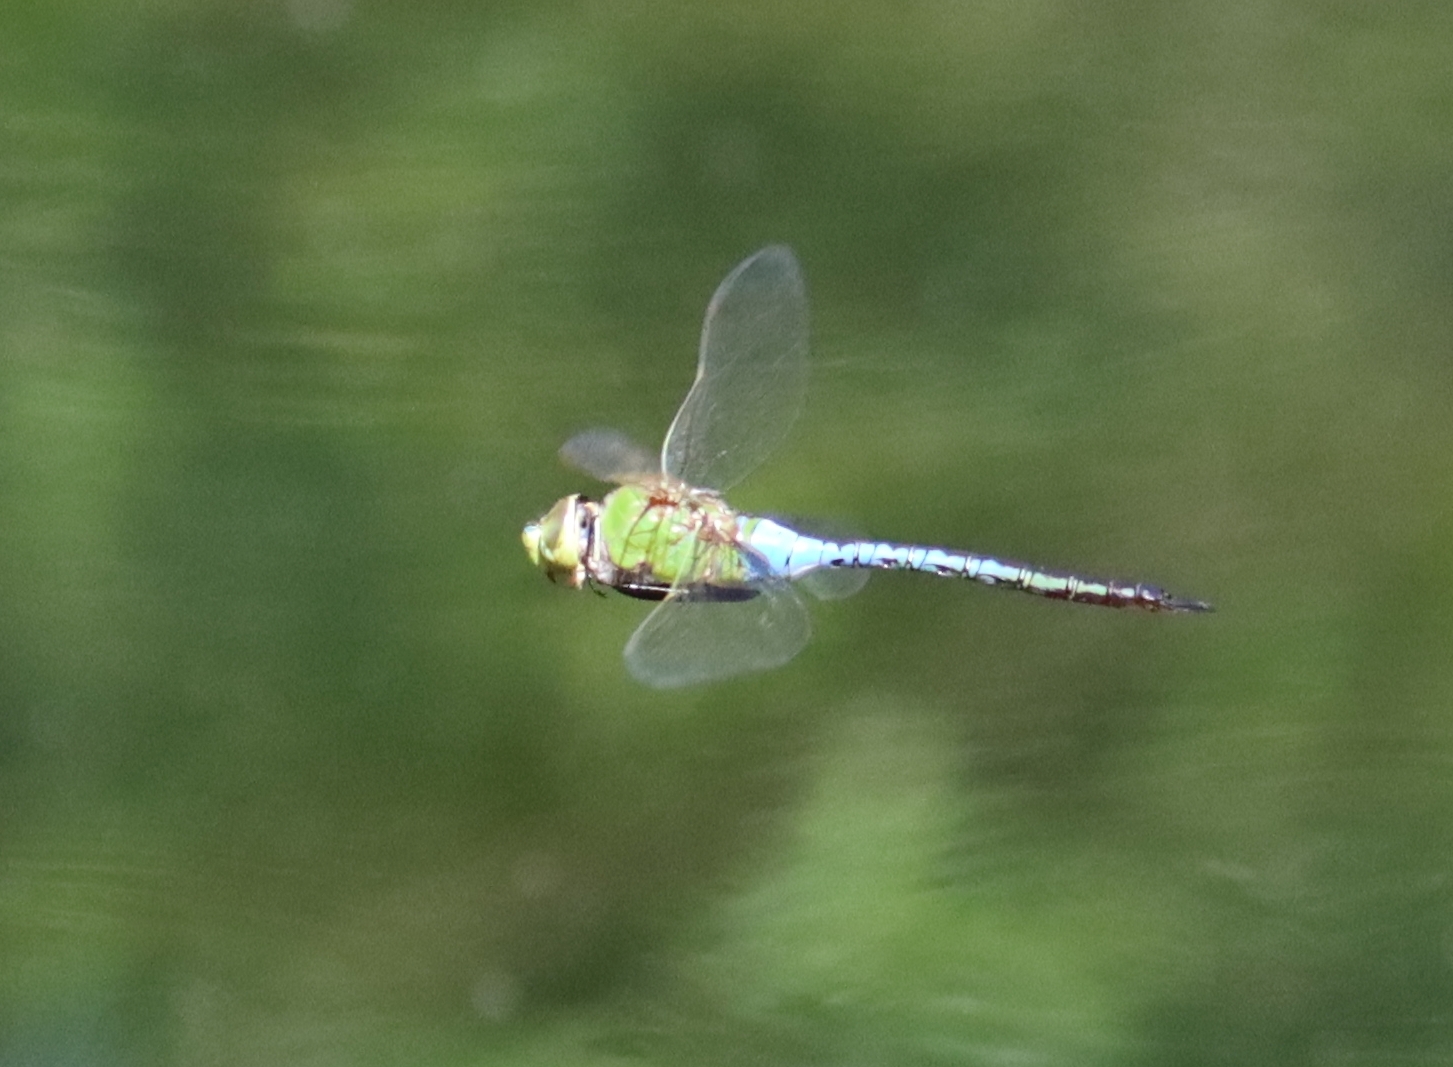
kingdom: Animalia
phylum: Arthropoda
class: Insecta
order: Odonata
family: Aeshnidae
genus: Anax
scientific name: Anax junius
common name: Common green darner
